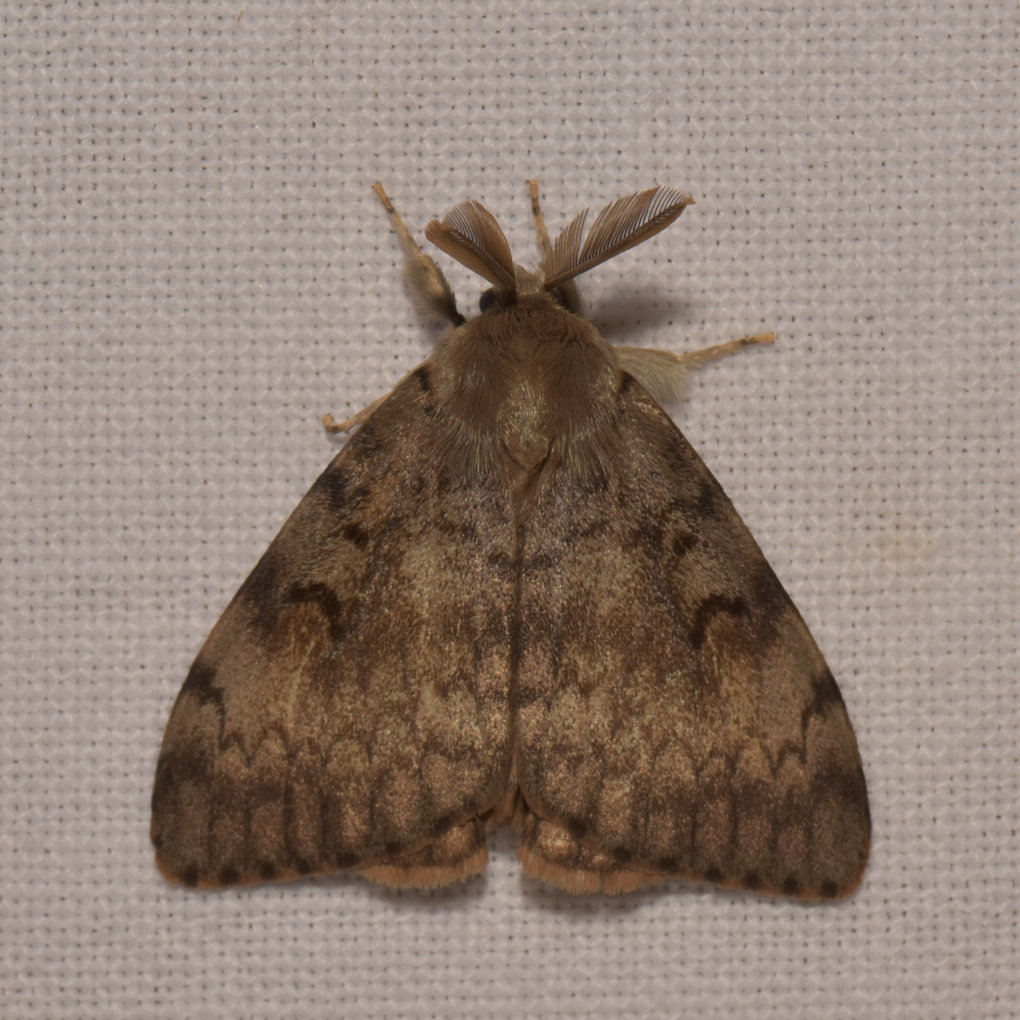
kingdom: Animalia
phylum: Arthropoda
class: Insecta
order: Lepidoptera
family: Erebidae
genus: Lymantria
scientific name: Lymantria dispar
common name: Gypsy moth
